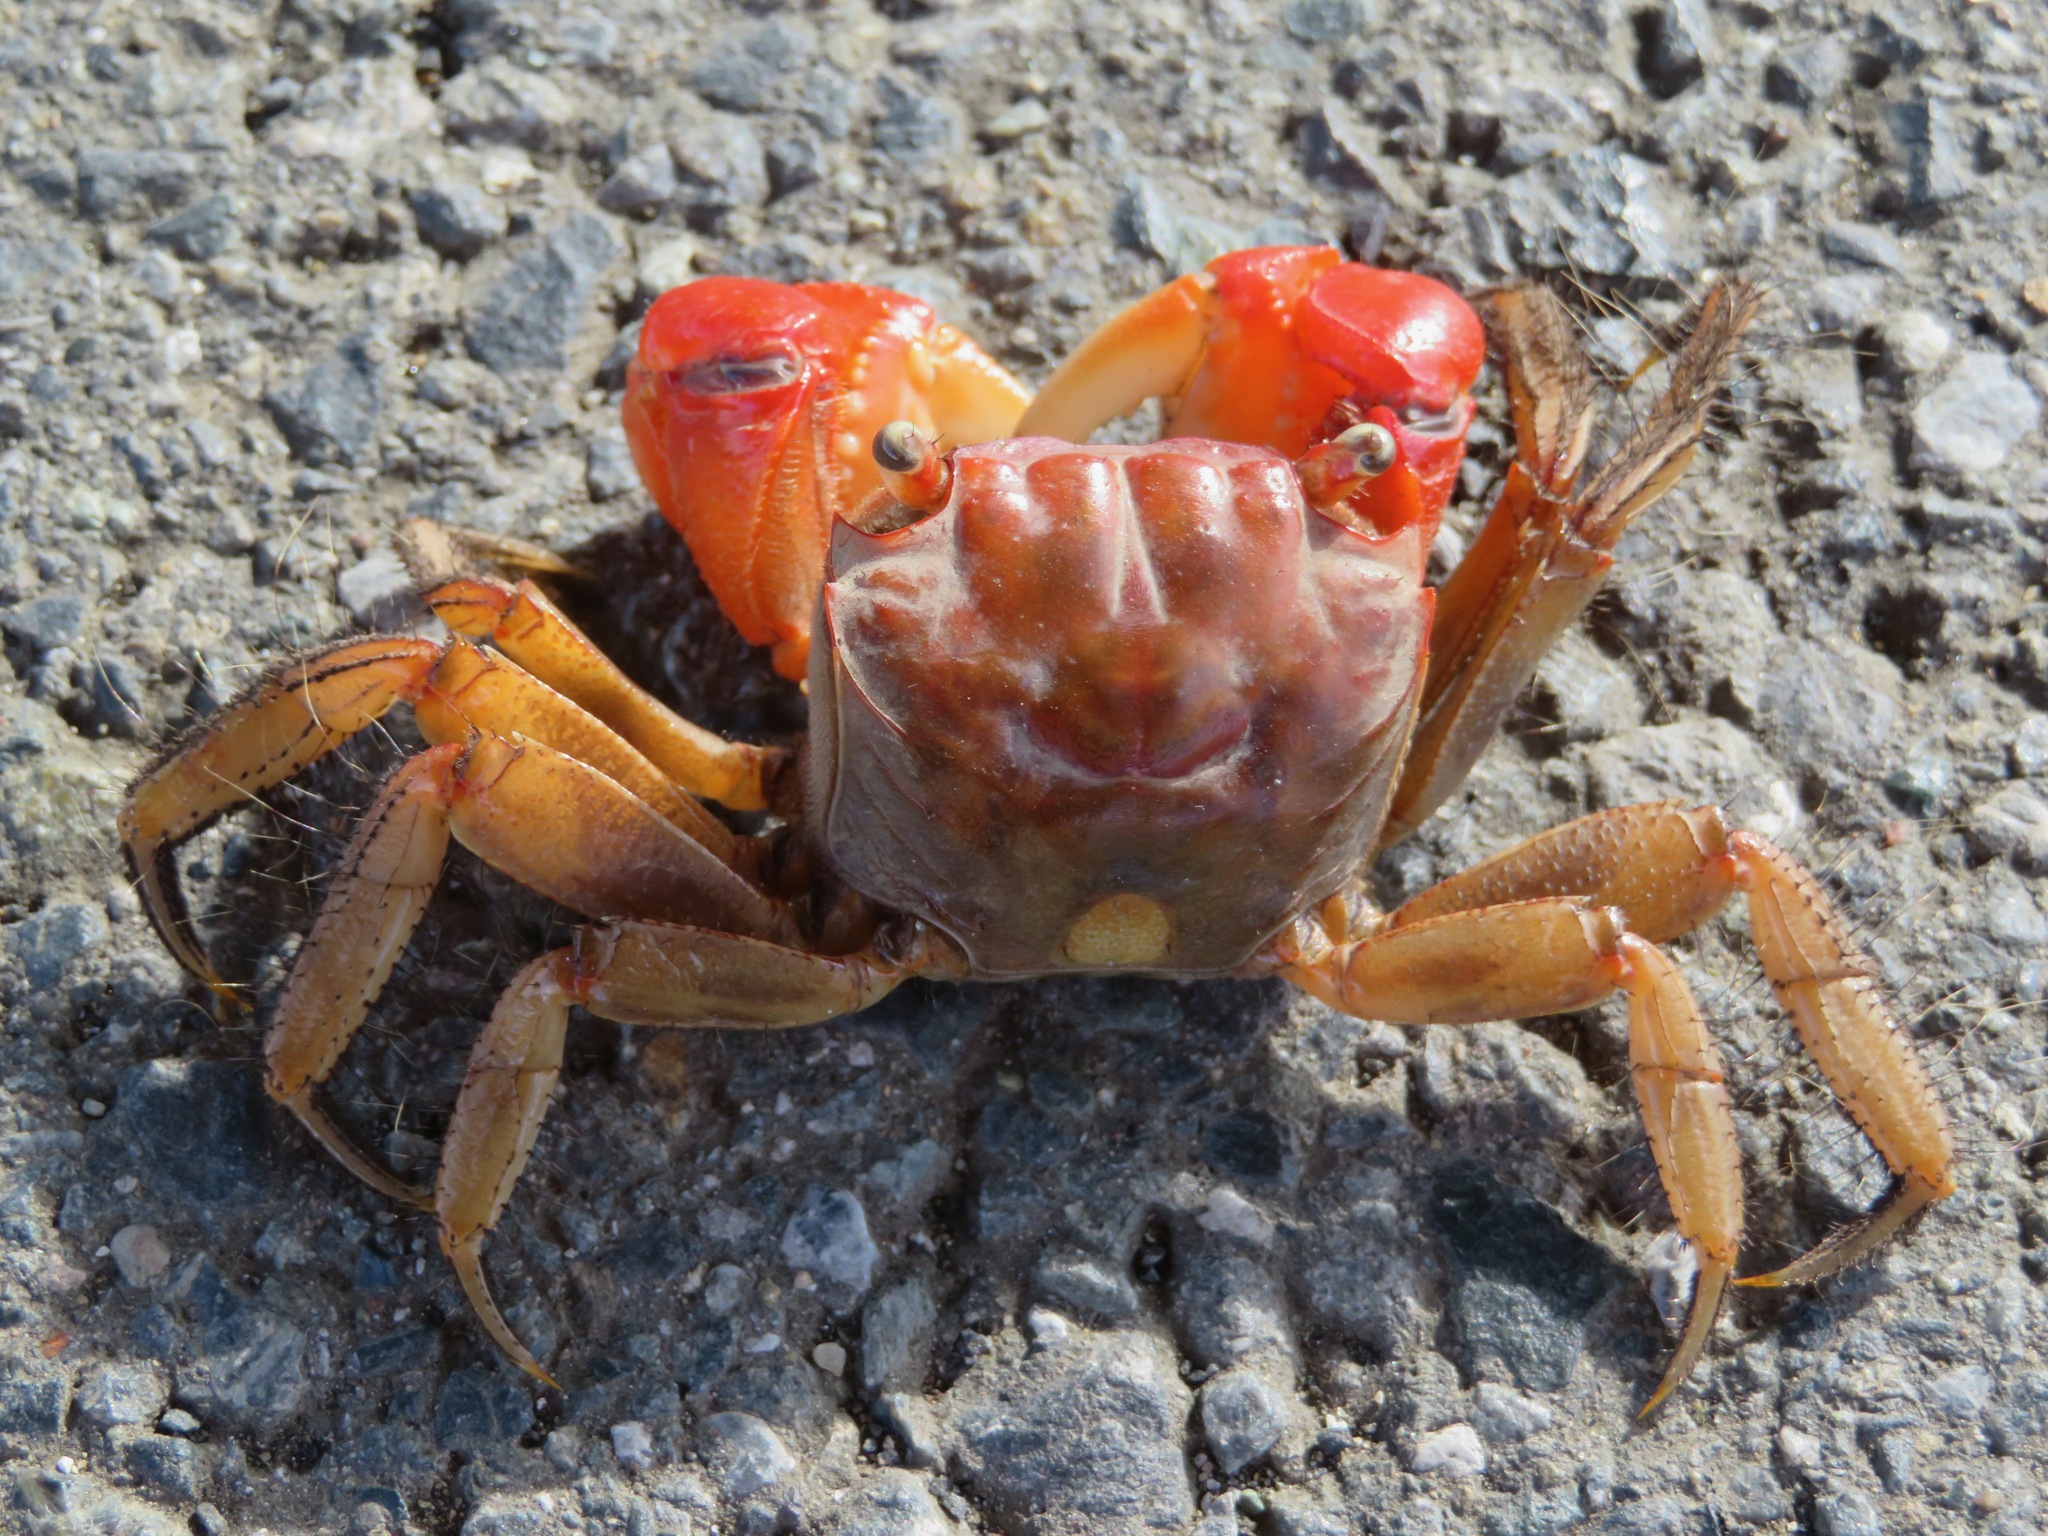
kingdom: Animalia
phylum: Arthropoda
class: Malacostraca
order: Decapoda
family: Sesarmidae
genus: Orisarma
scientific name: Orisarma intermedium
